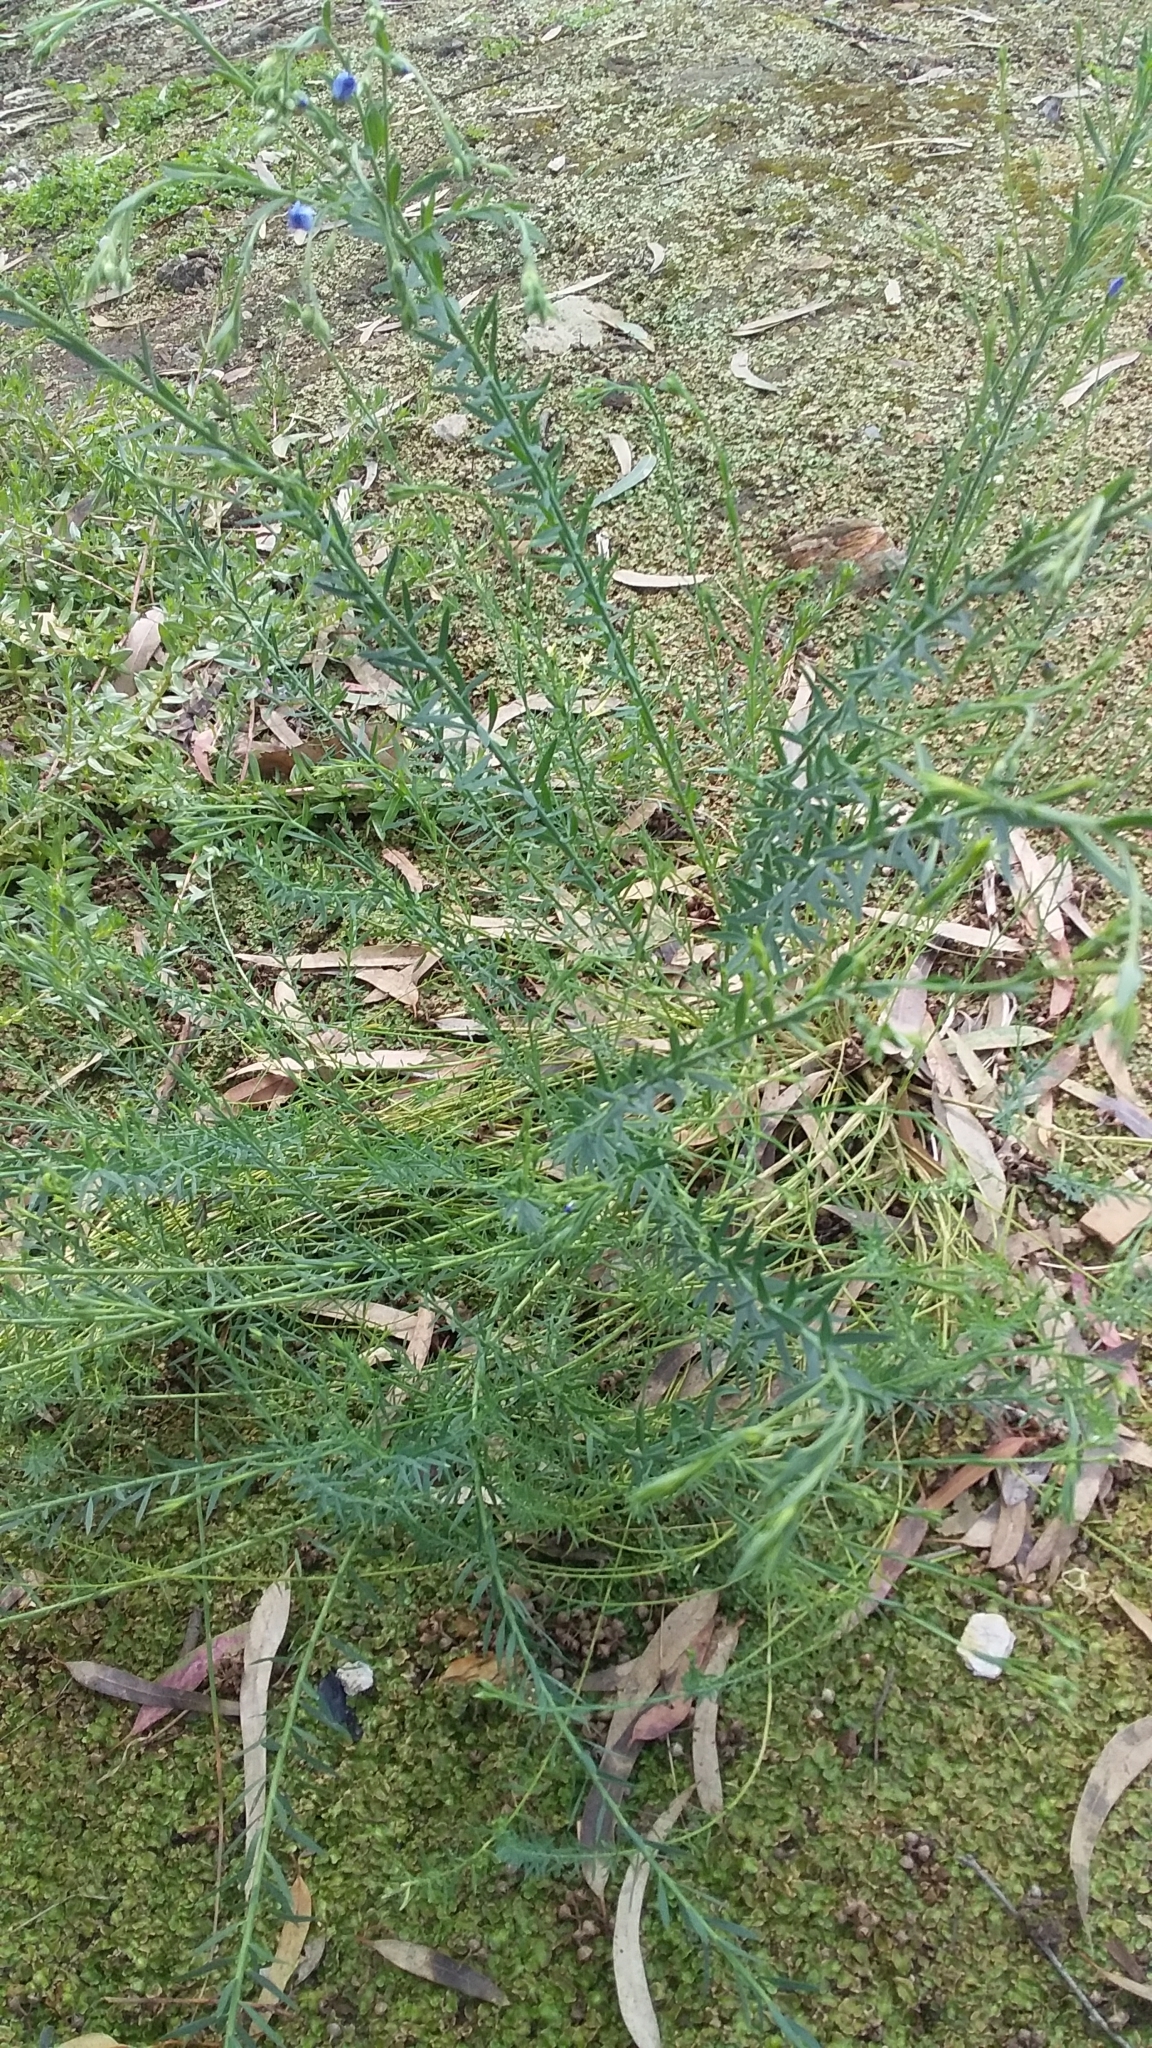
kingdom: Plantae
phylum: Tracheophyta
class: Magnoliopsida
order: Malpighiales
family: Linaceae
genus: Linum
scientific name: Linum marginale
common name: Wild flax
